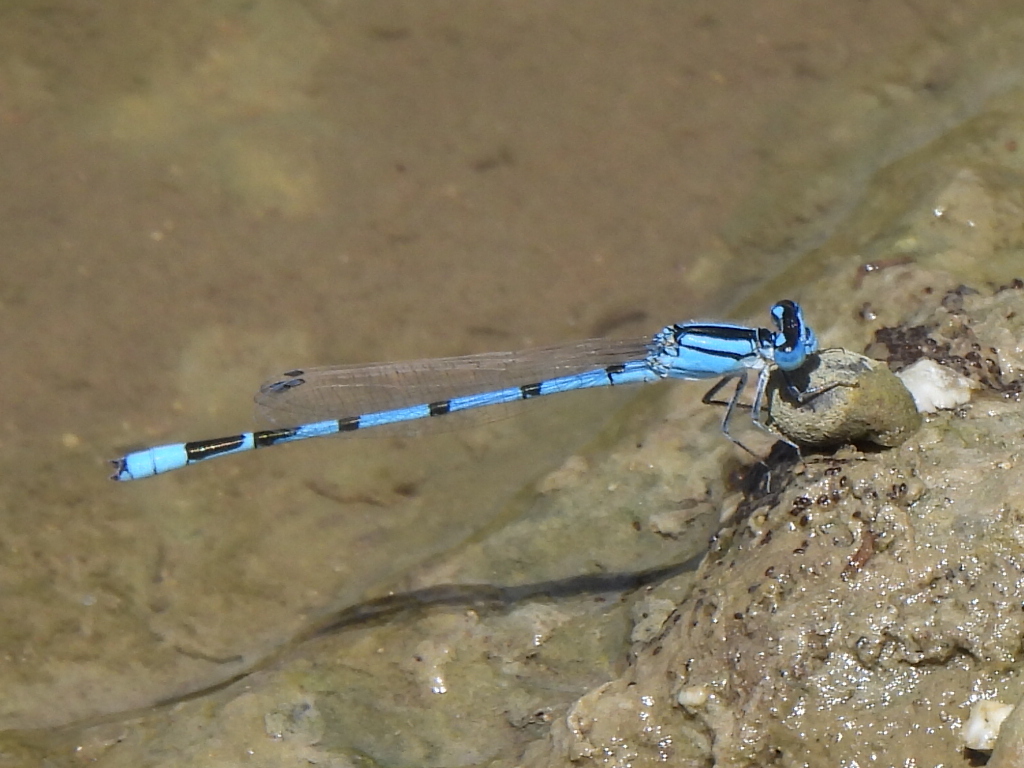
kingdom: Animalia
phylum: Arthropoda
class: Insecta
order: Odonata
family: Coenagrionidae
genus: Enallagma
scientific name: Enallagma civile
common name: Damselfly
